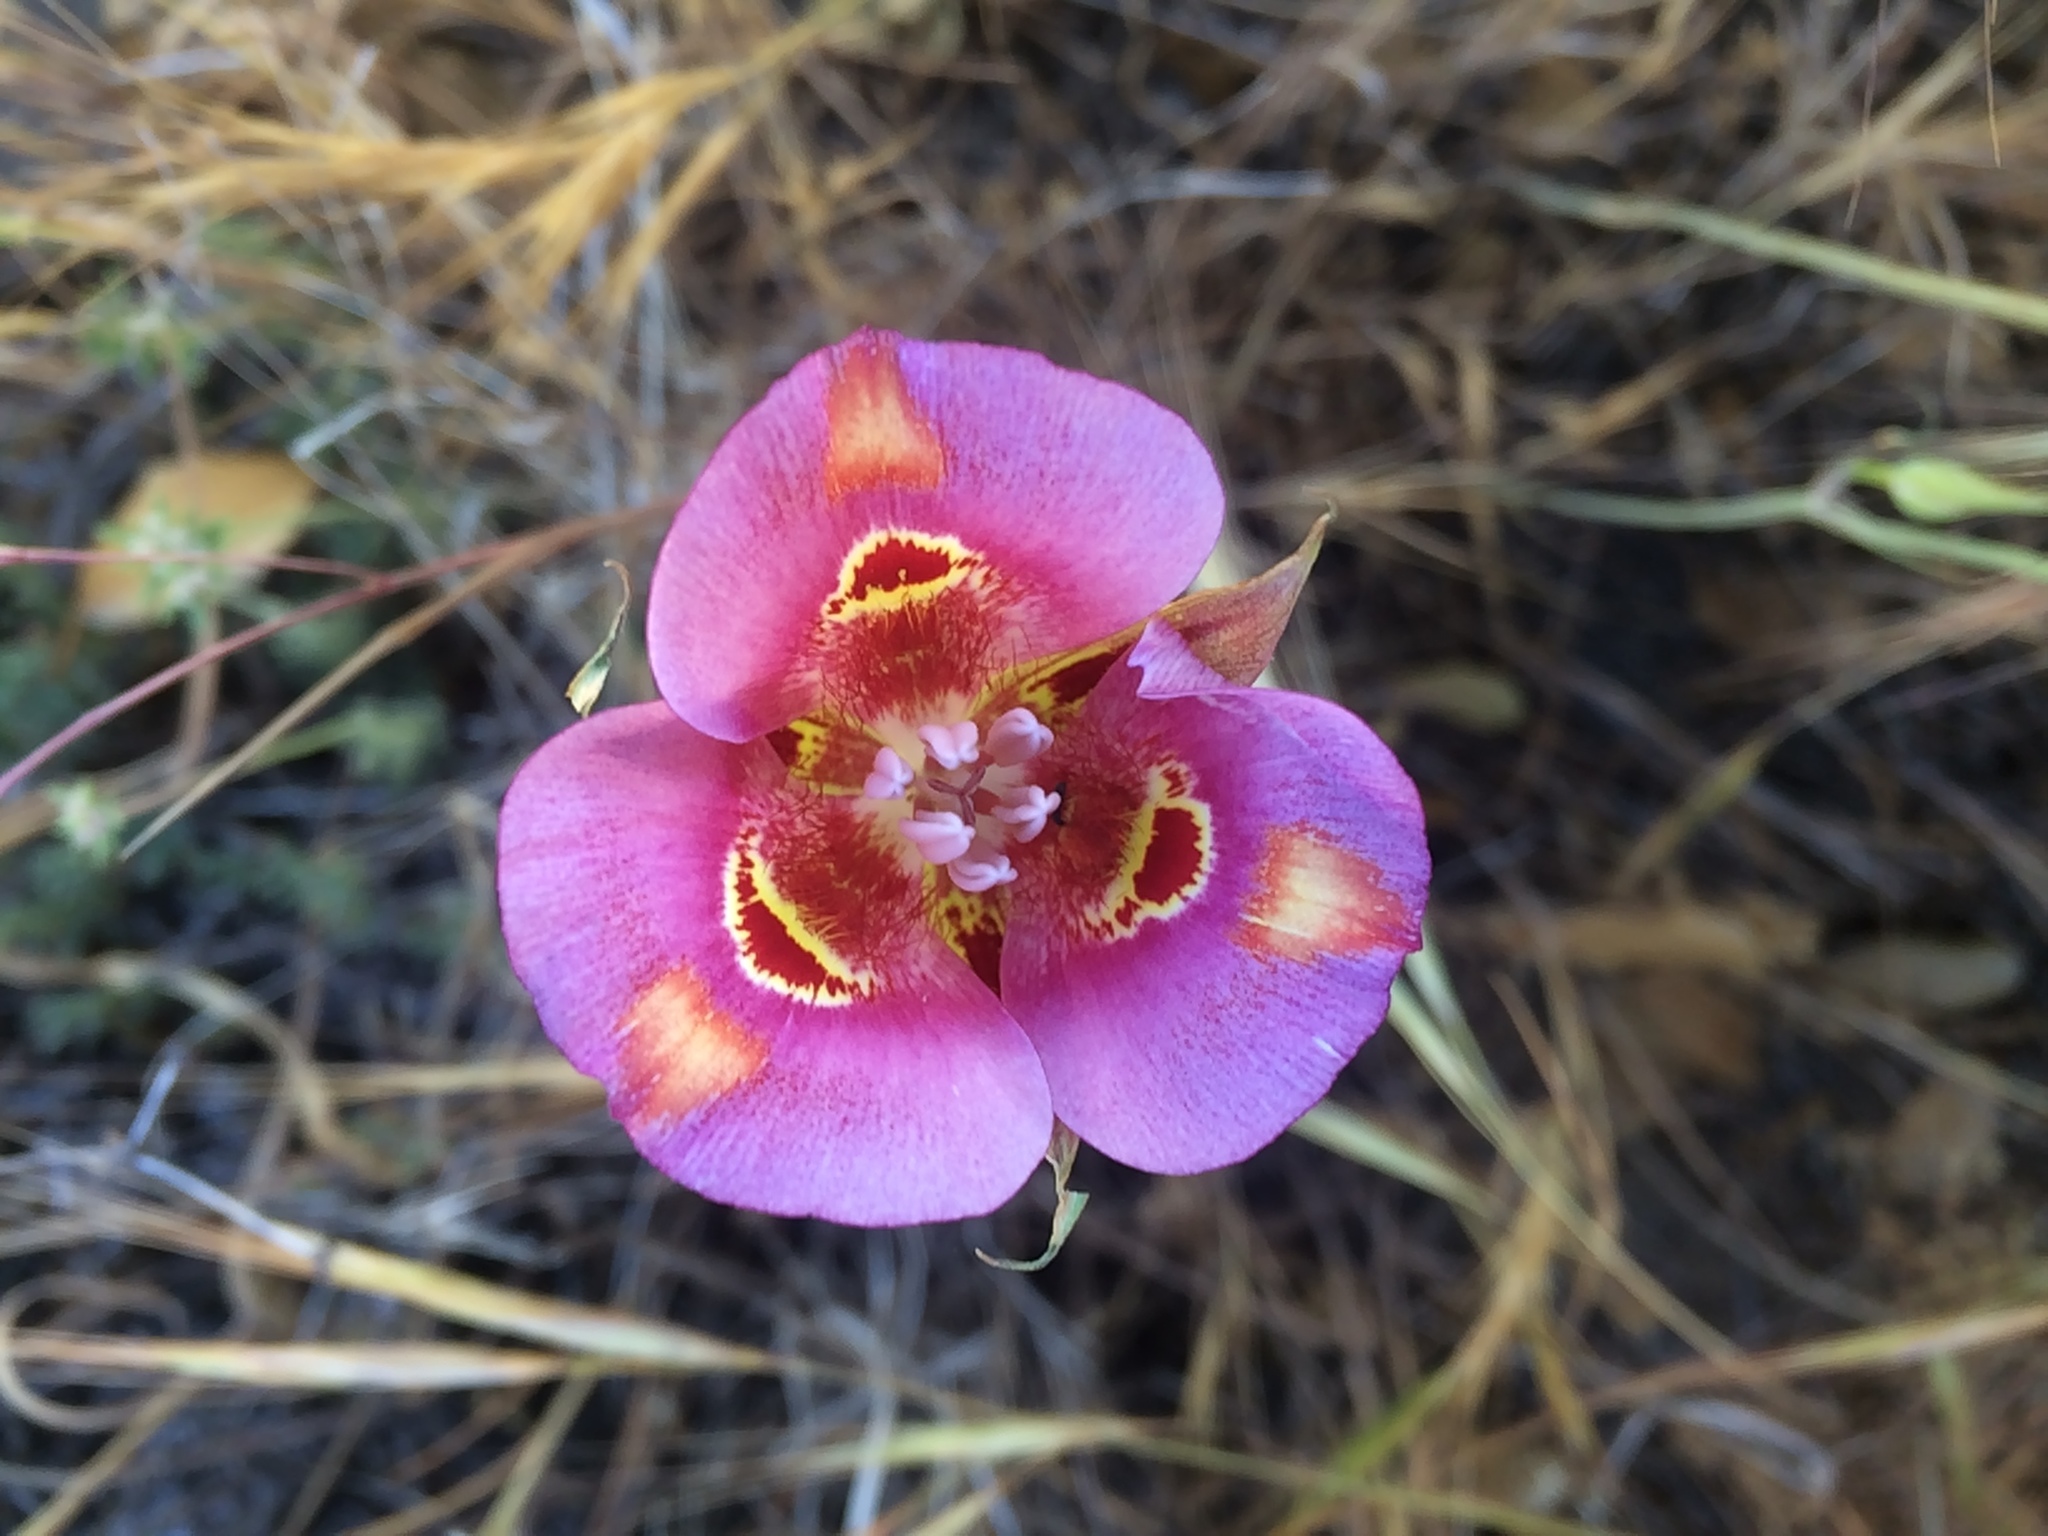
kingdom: Plantae
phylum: Tracheophyta
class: Liliopsida
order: Liliales
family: Liliaceae
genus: Calochortus
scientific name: Calochortus venustus
